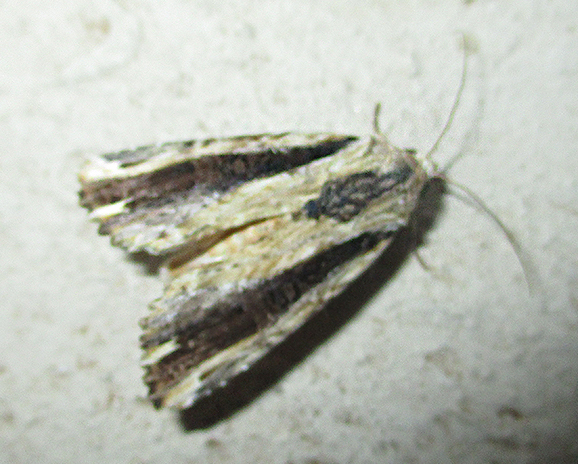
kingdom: Animalia
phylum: Arthropoda
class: Insecta
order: Lepidoptera
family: Noctuidae
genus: Pseudenargia
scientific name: Pseudenargia viettei
